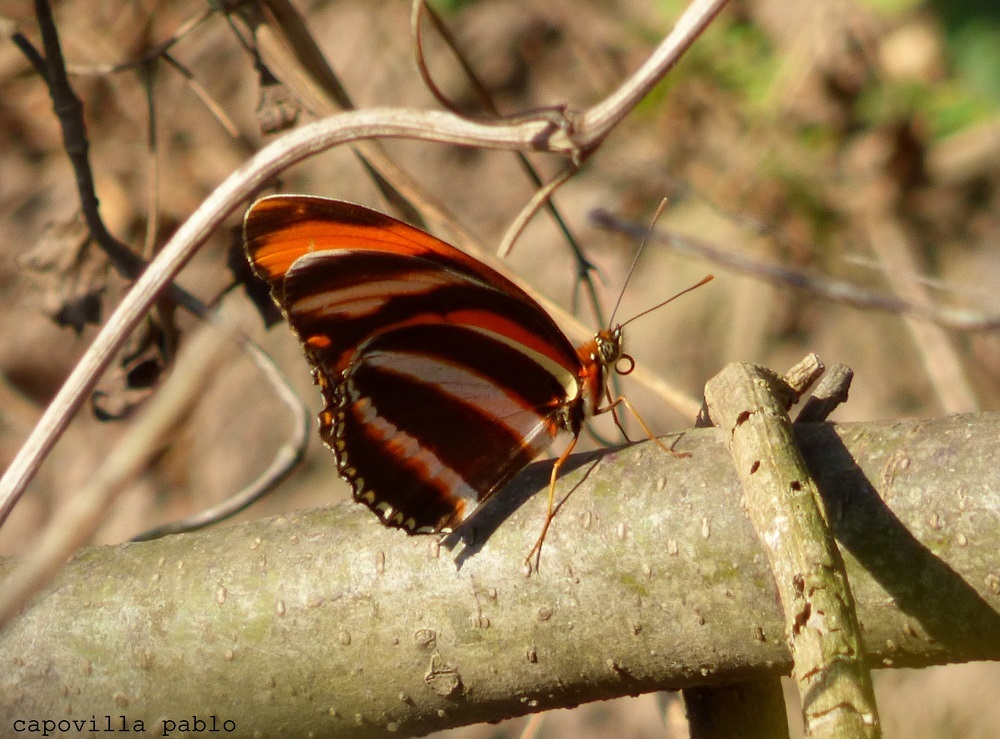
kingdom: Animalia
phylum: Arthropoda
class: Insecta
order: Lepidoptera
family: Nymphalidae
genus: Dryadula
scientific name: Dryadula phaetusa
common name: Banded orange heliconian
